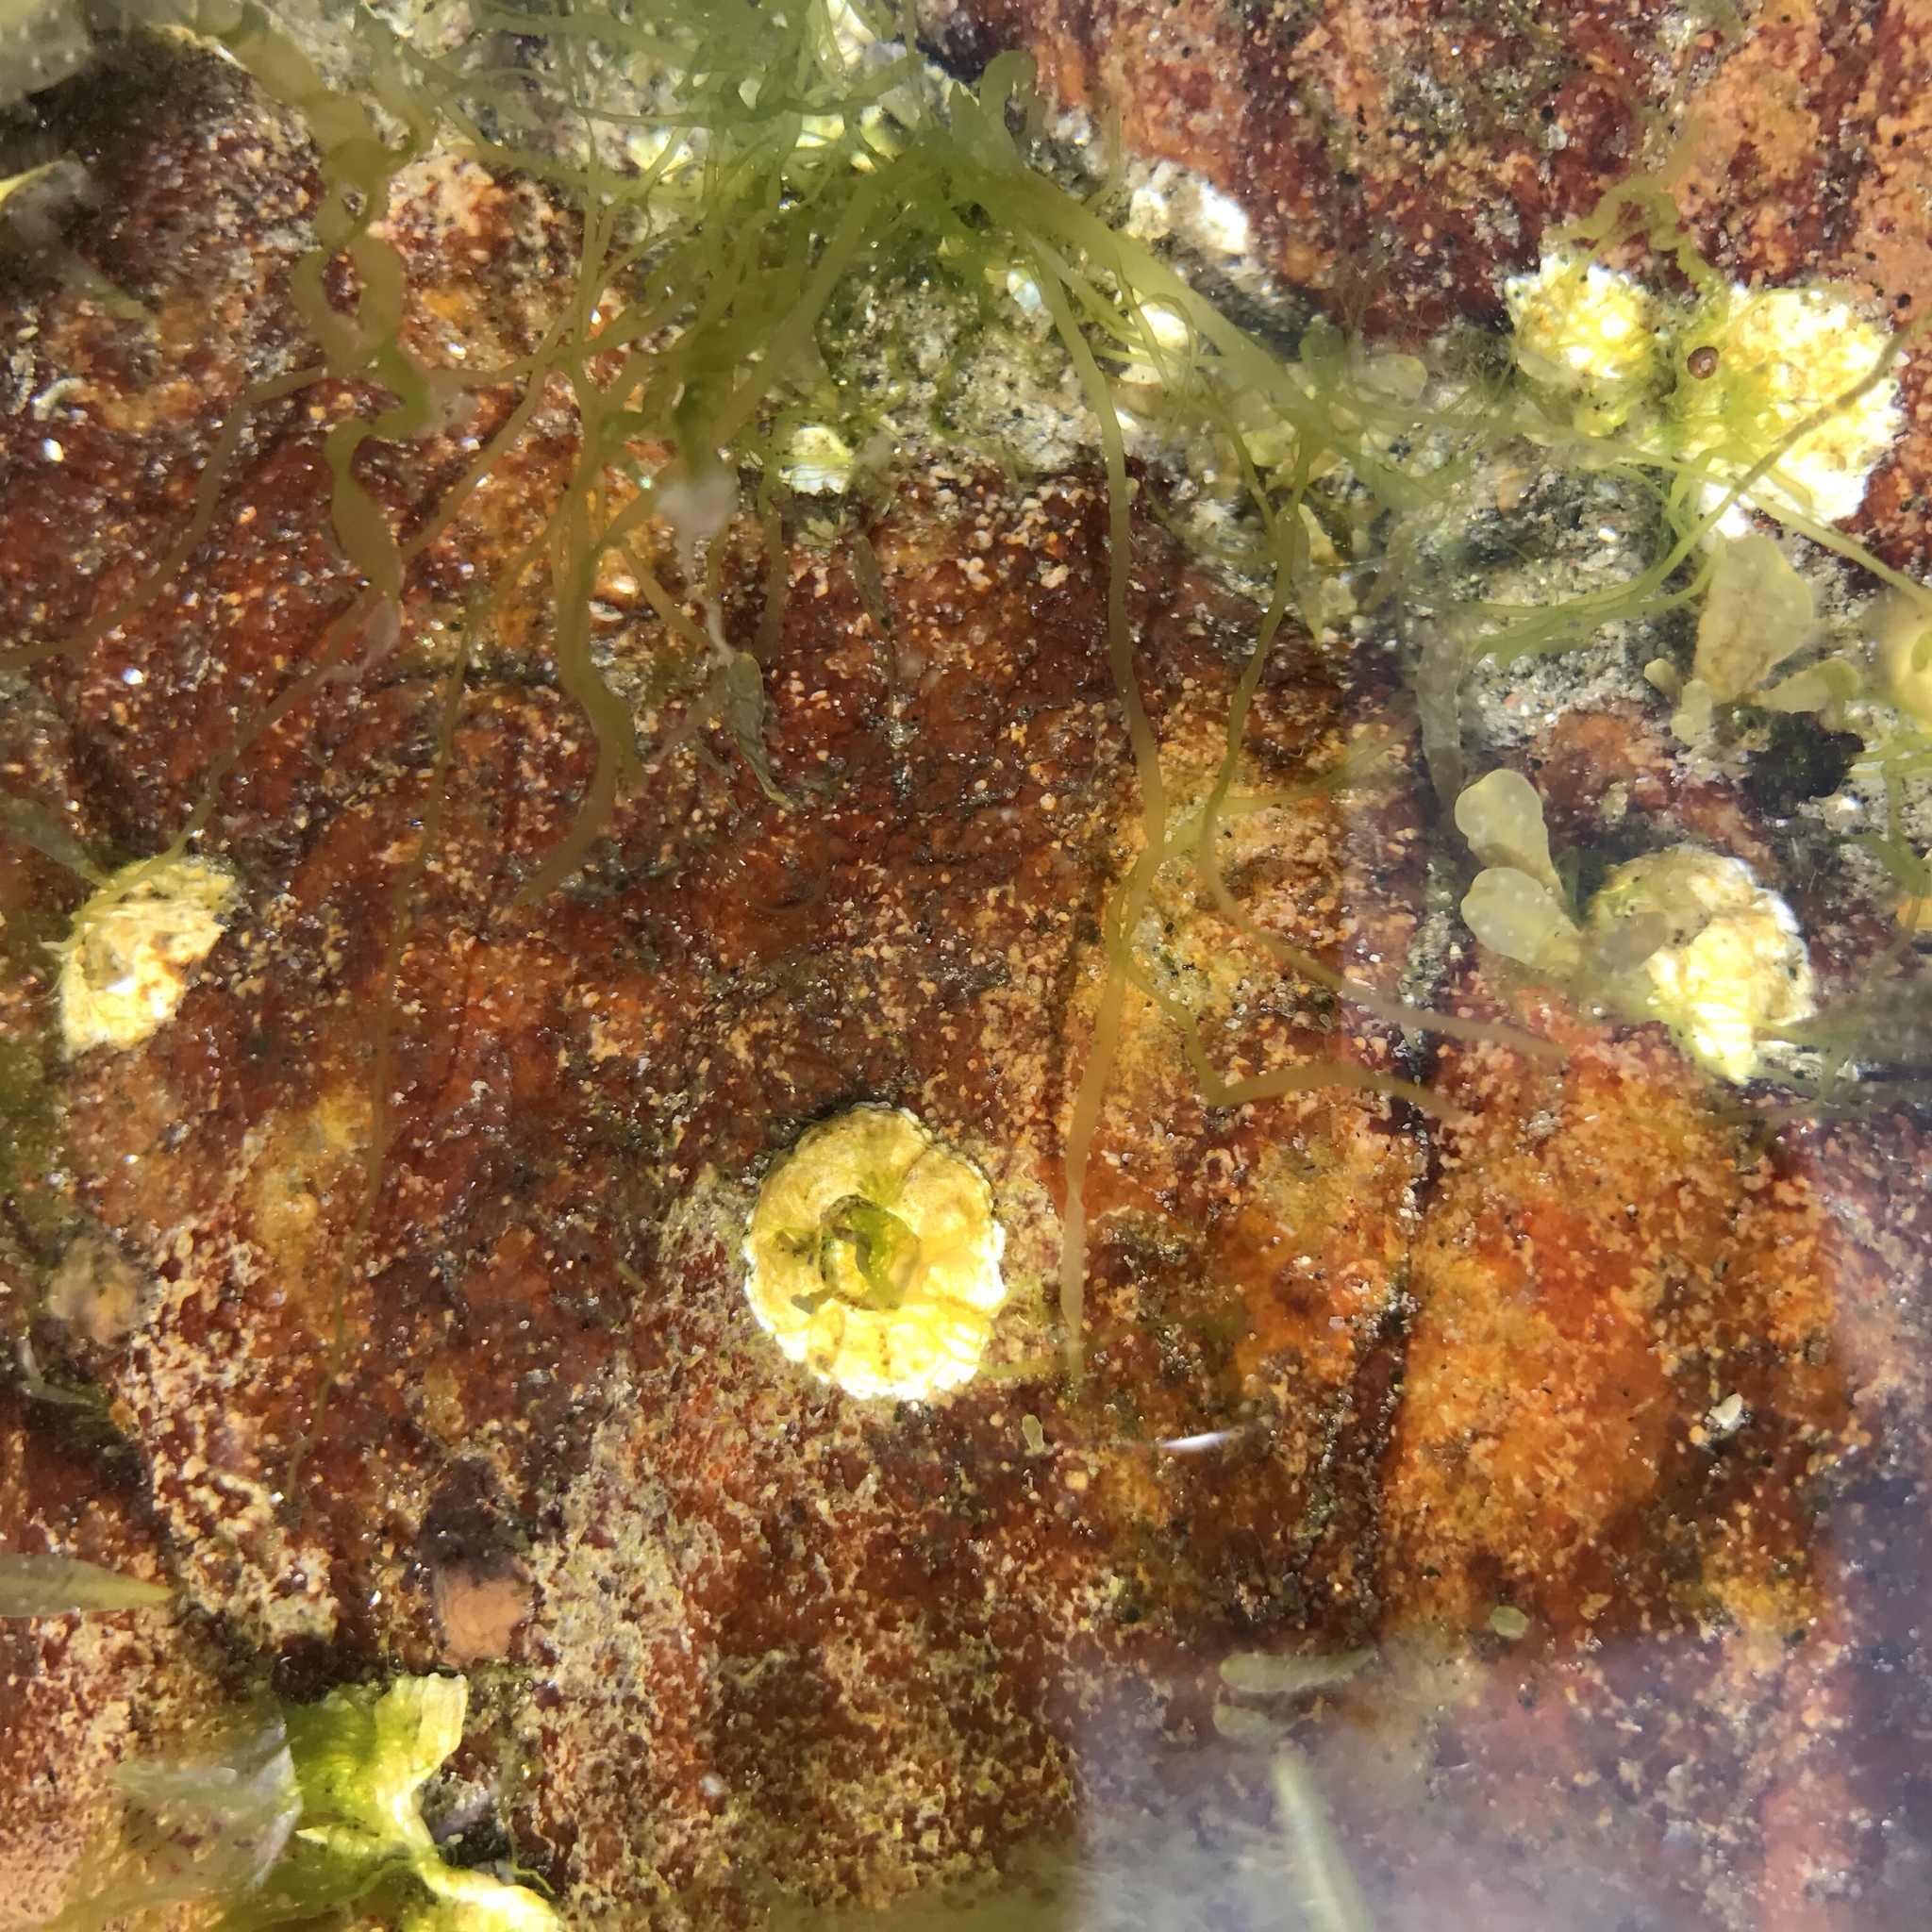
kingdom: Animalia
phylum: Arthropoda
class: Maxillopoda
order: Sessilia
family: Archaeobalanidae
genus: Semibalanus
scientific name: Semibalanus balanoides
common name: Acorn barnacle
